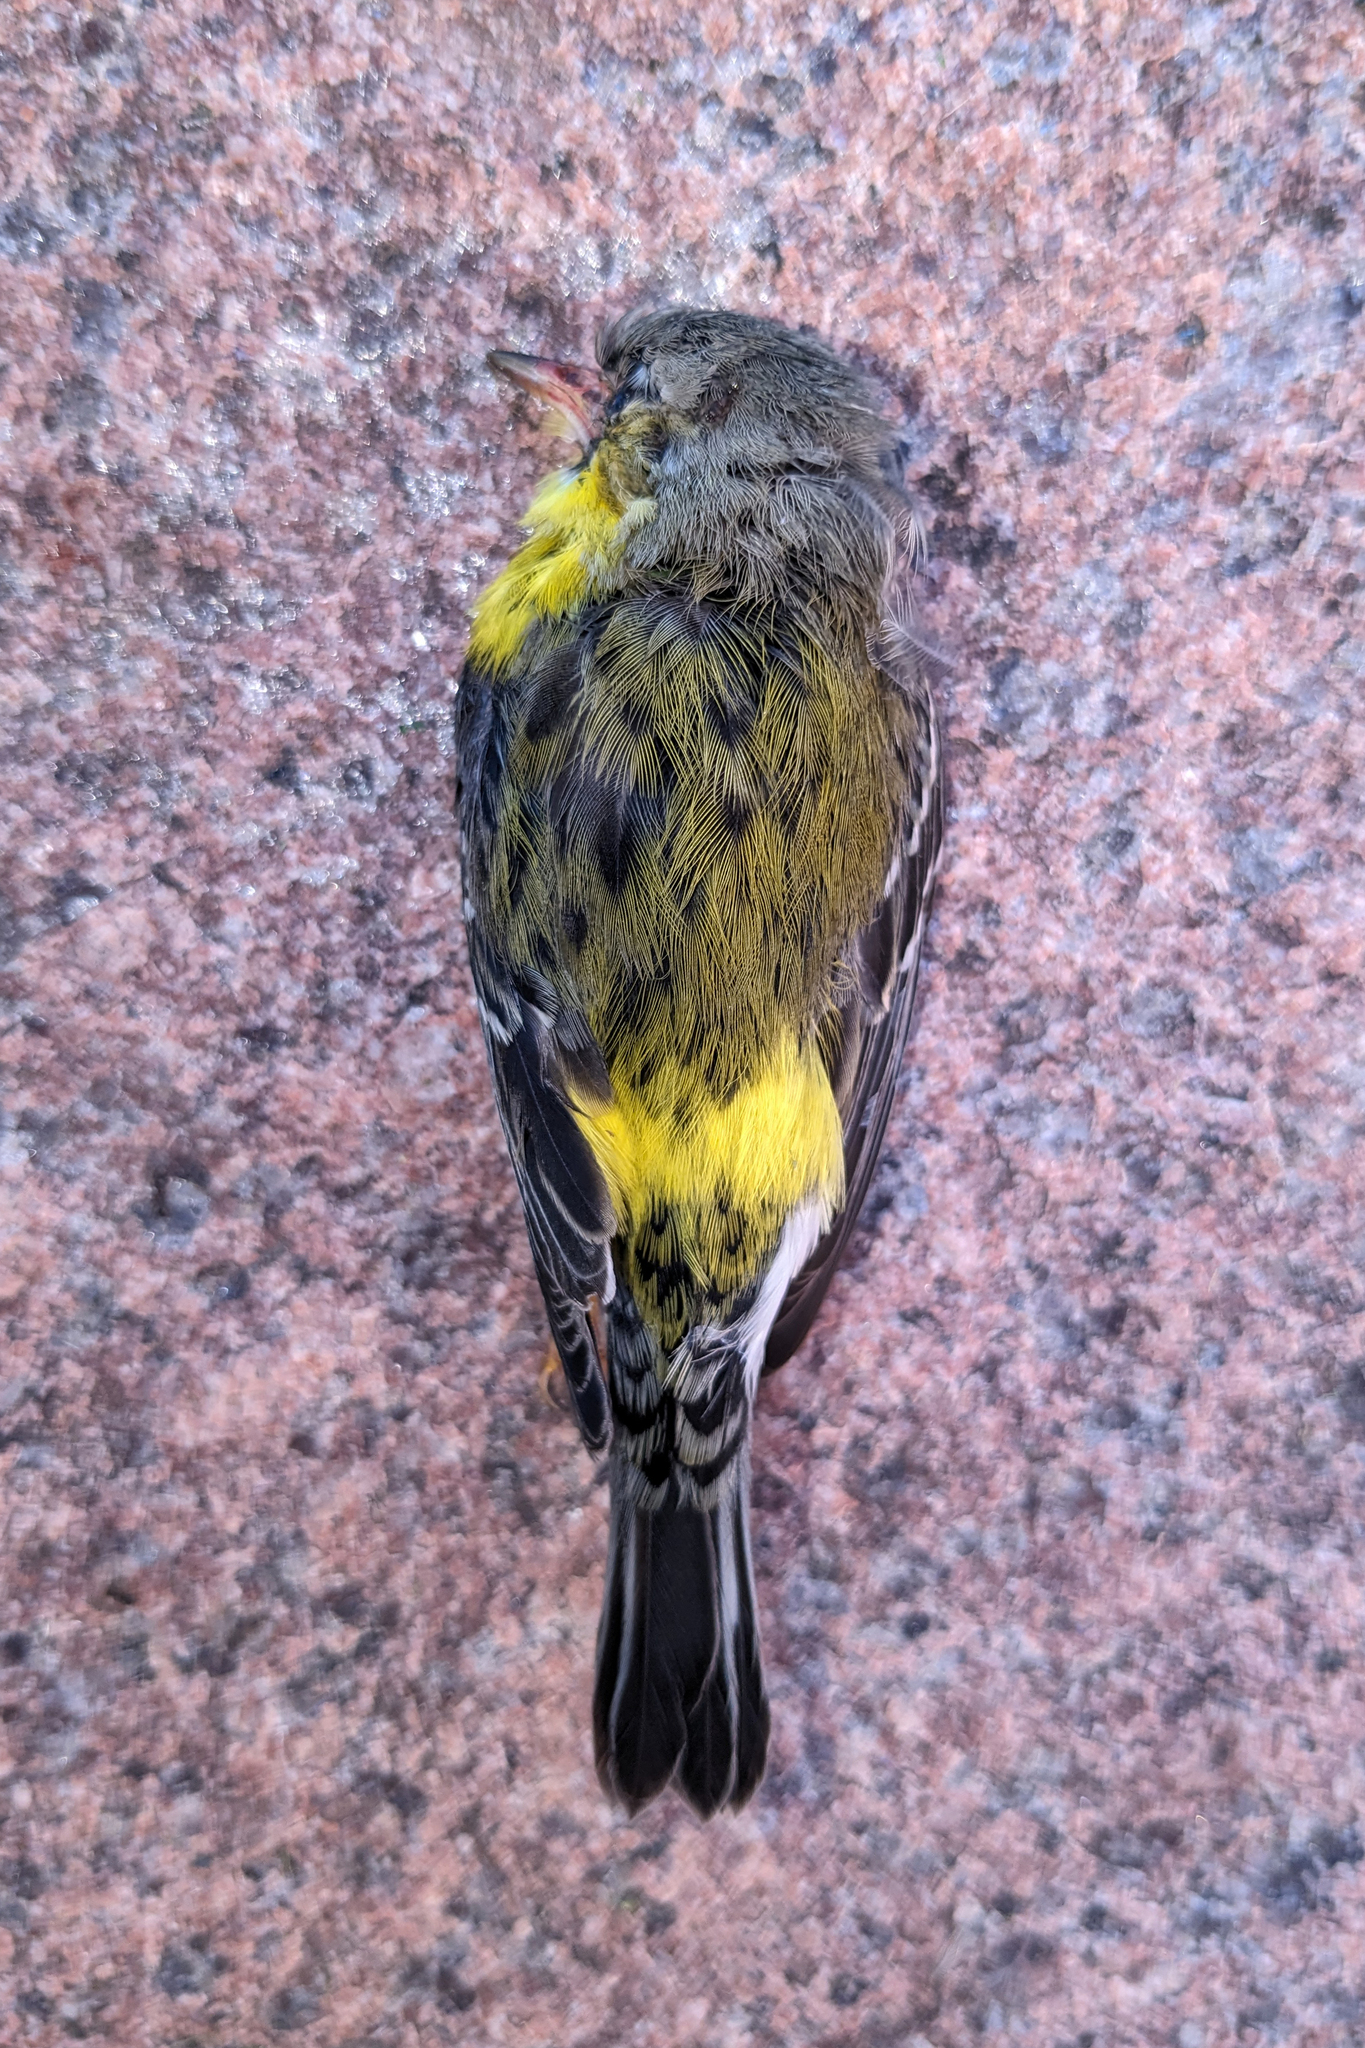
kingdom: Animalia
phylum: Chordata
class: Aves
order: Passeriformes
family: Parulidae
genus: Setophaga
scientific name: Setophaga magnolia
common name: Magnolia warbler
